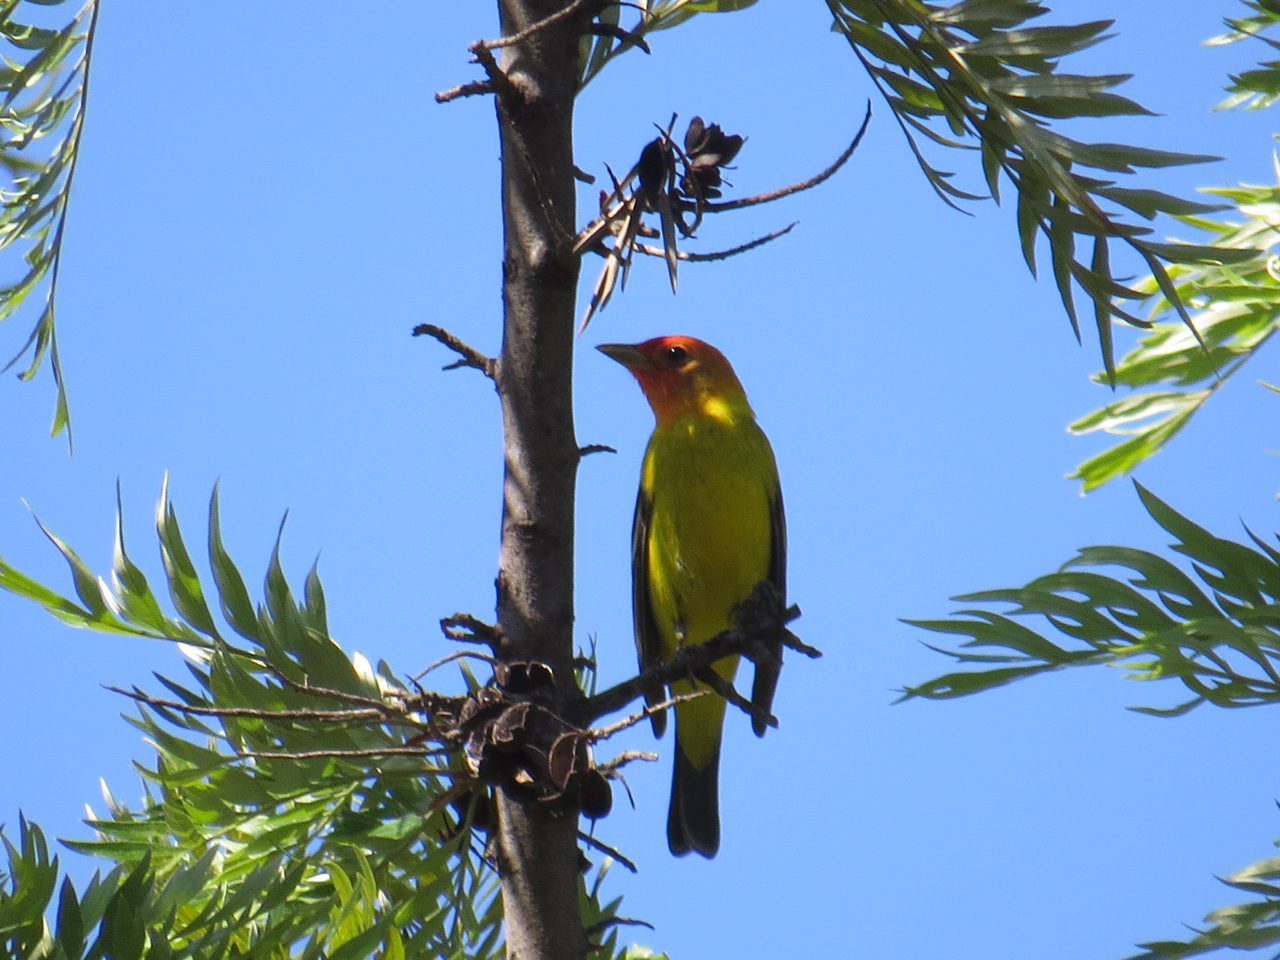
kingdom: Animalia
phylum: Chordata
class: Aves
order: Passeriformes
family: Cardinalidae
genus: Piranga
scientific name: Piranga ludoviciana
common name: Western tanager
